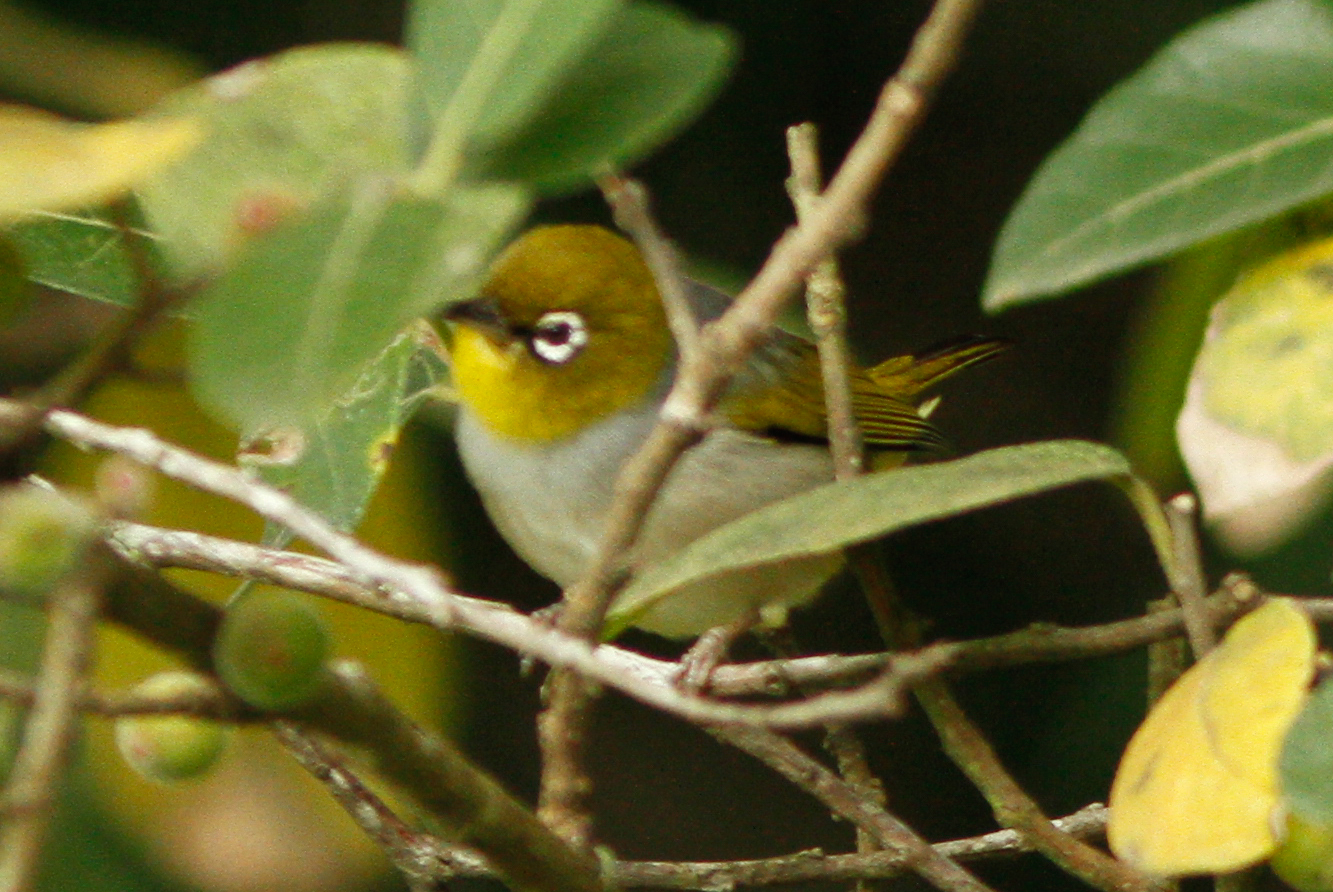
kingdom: Animalia
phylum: Chordata
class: Aves
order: Passeriformes
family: Zosteropidae
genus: Zosterops
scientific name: Zosterops lateralis
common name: Silvereye
